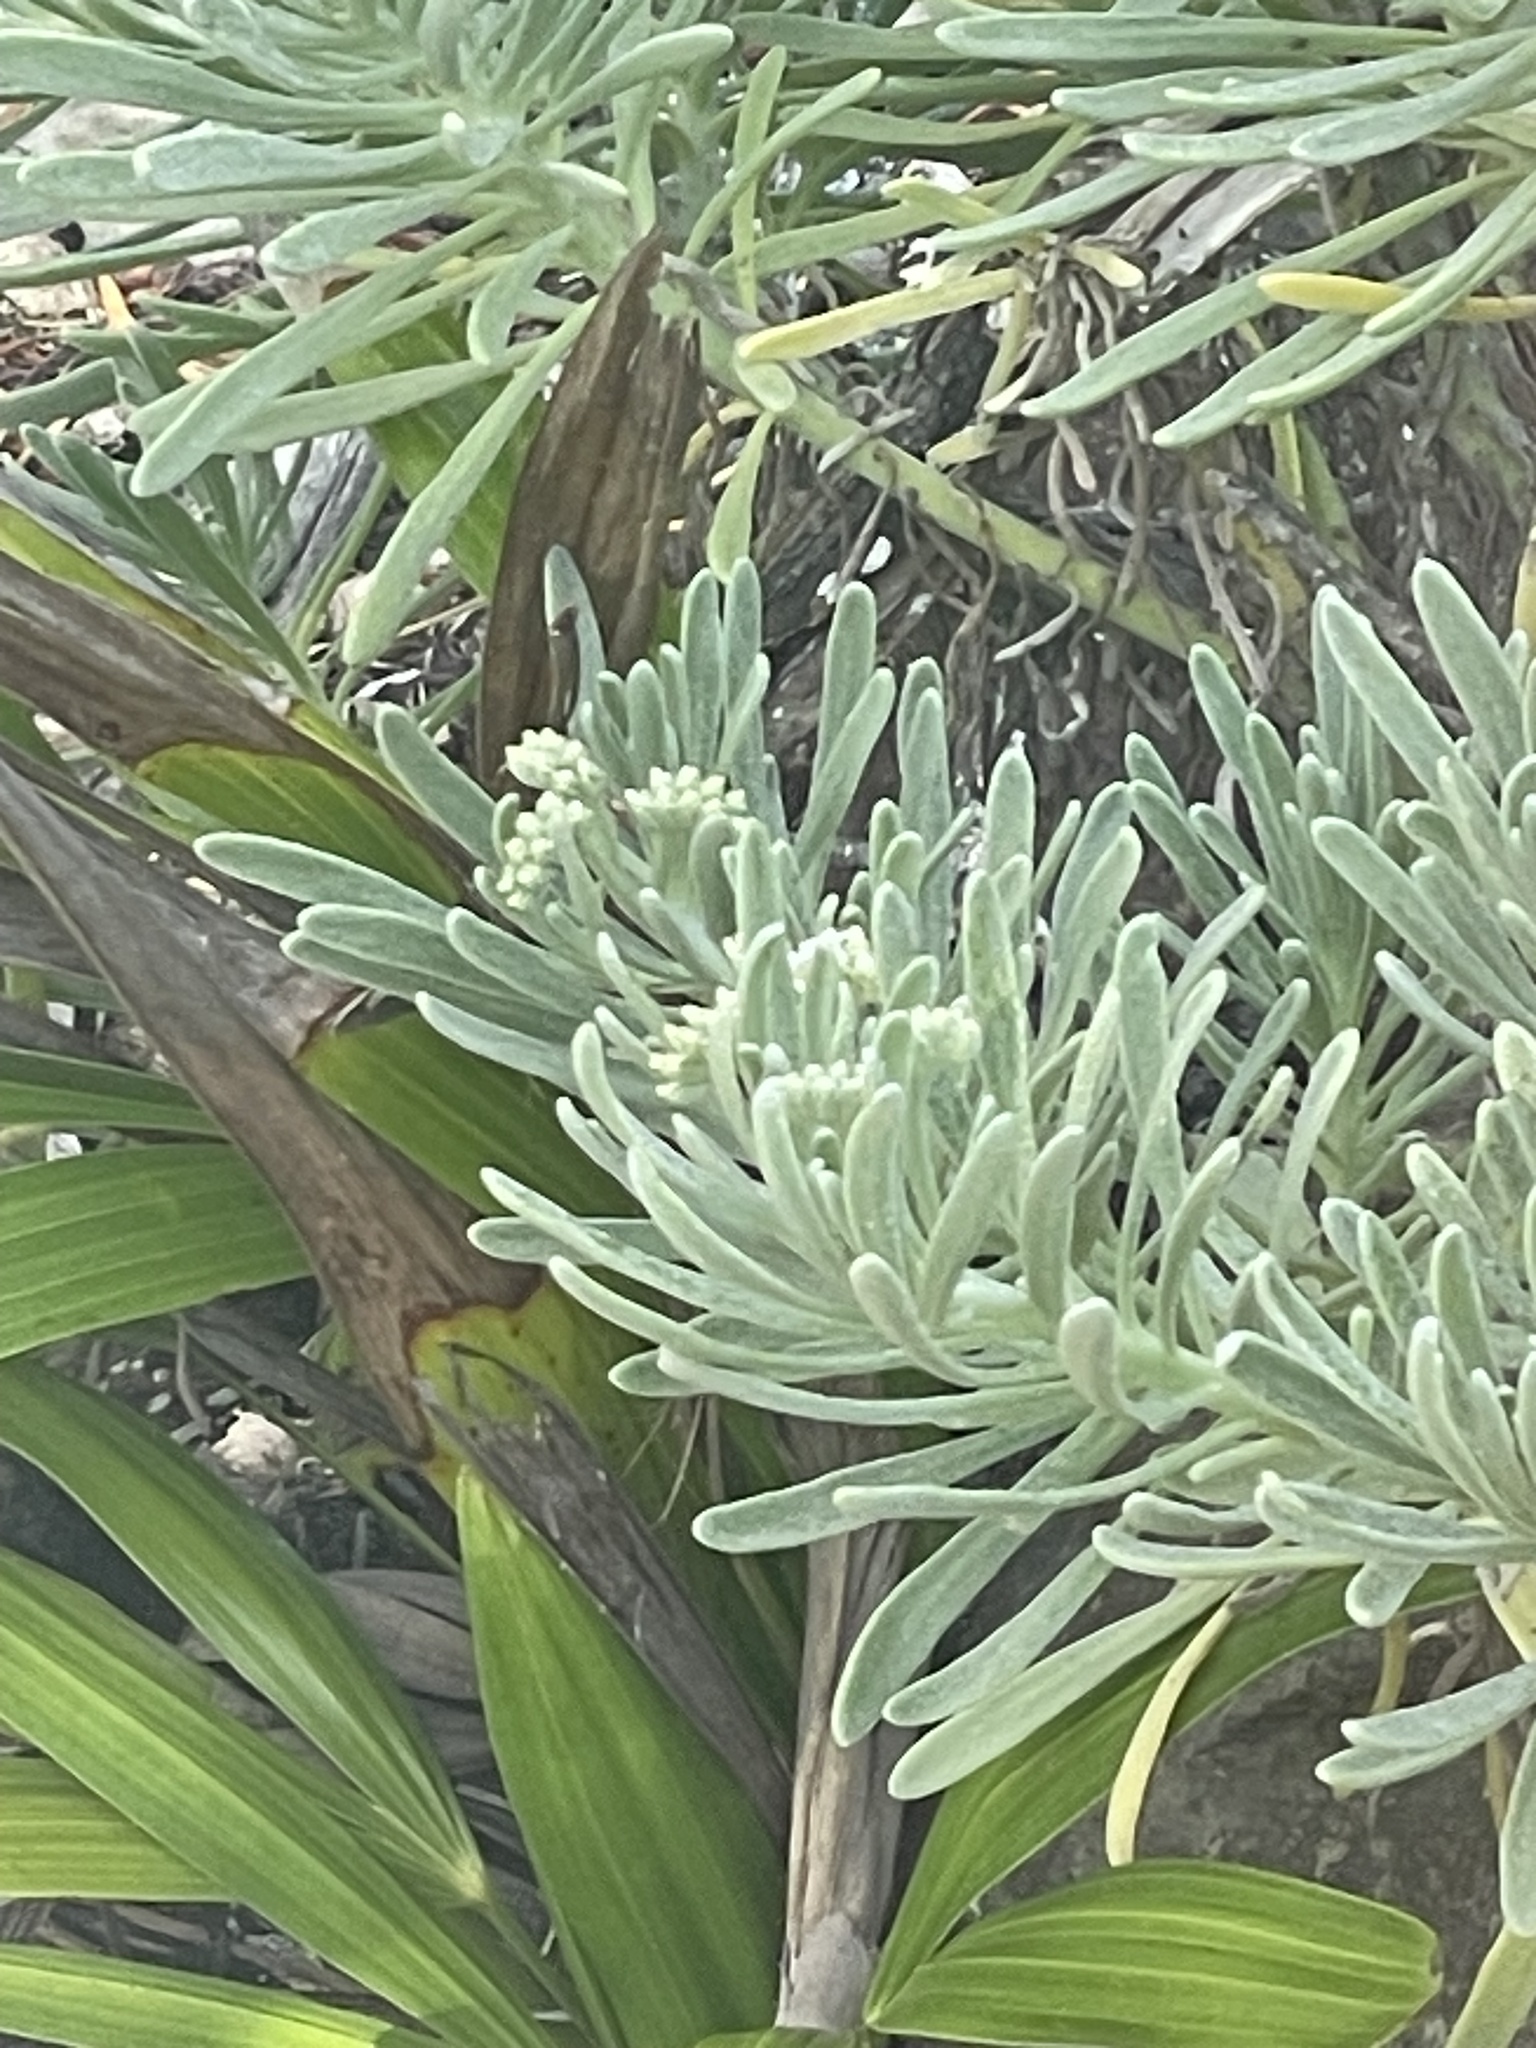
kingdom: Plantae
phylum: Tracheophyta
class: Magnoliopsida
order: Boraginales
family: Heliotropiaceae
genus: Tournefortia
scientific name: Tournefortia gnaphalodes
